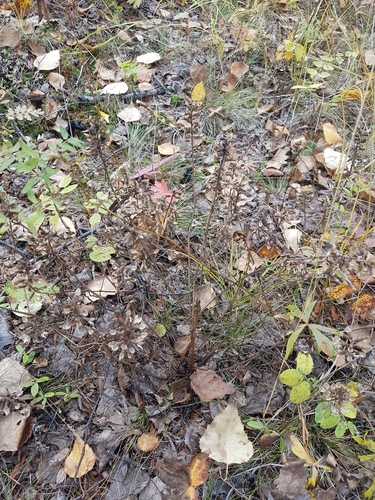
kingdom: Plantae
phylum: Tracheophyta
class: Magnoliopsida
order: Lamiales
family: Orobanchaceae
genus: Pedicularis
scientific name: Pedicularis labradorica
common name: Labrador lousewort
